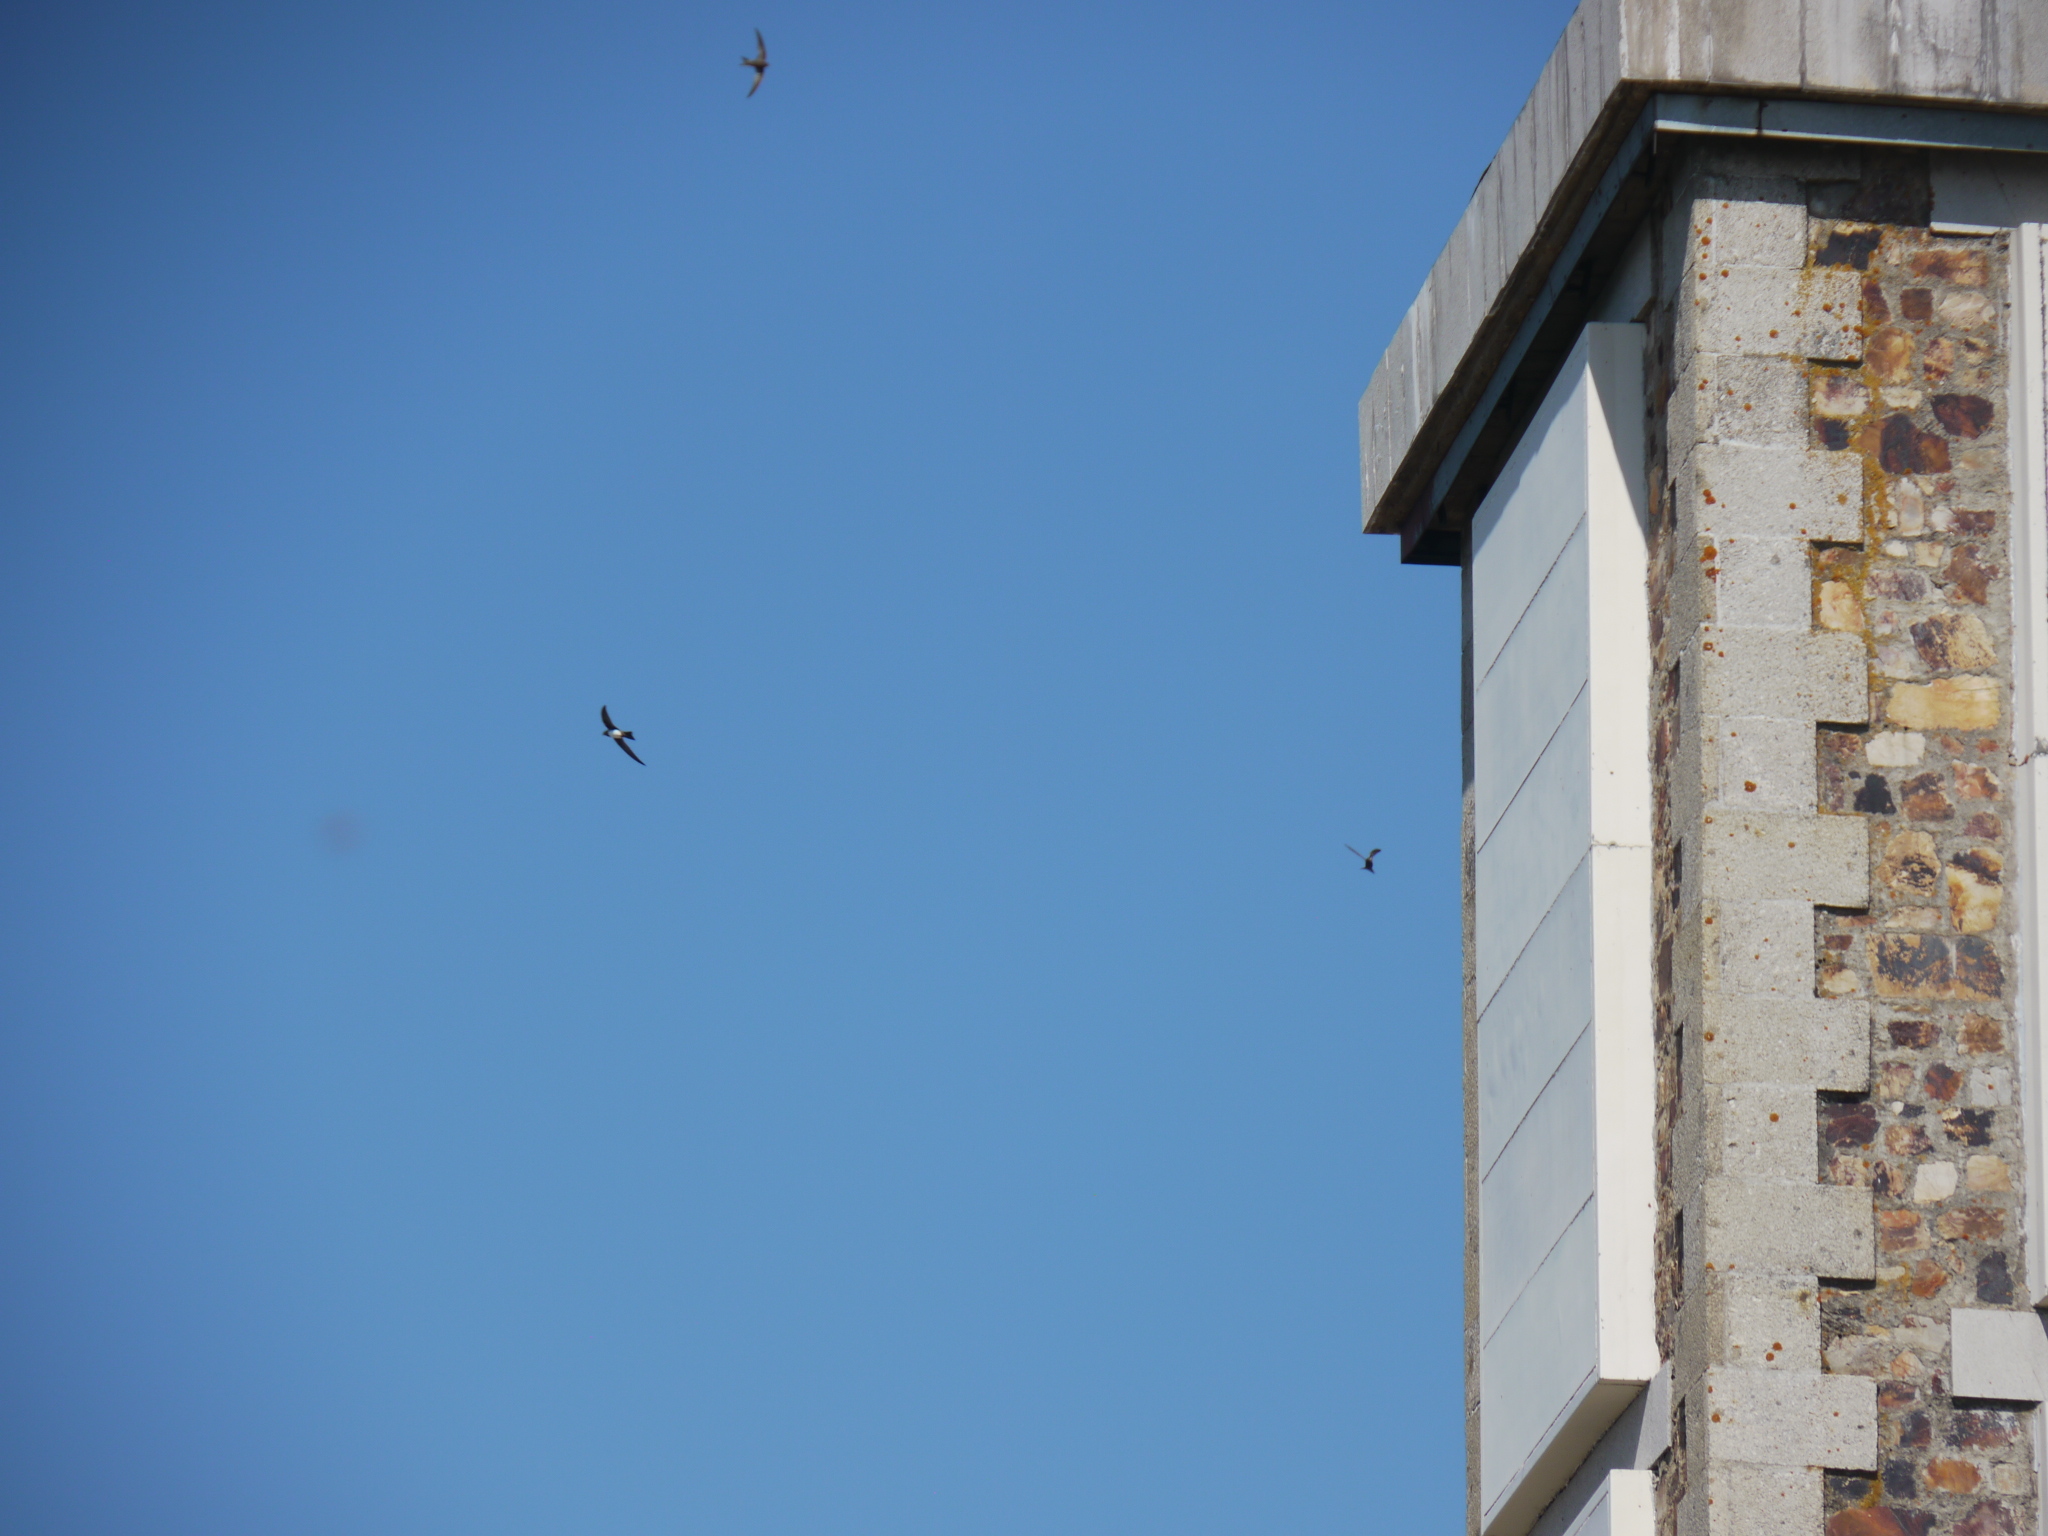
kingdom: Animalia
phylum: Chordata
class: Aves
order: Apodiformes
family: Apodidae
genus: Tachymarptis
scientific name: Tachymarptis melba
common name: Alpine swift
